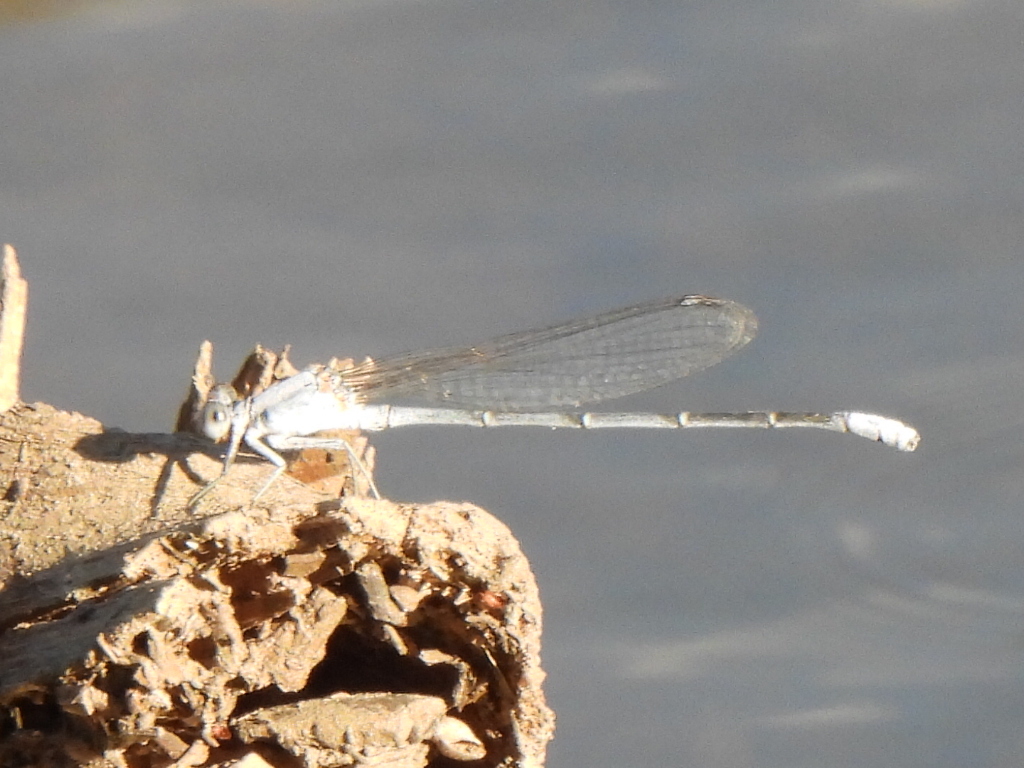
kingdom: Animalia
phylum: Arthropoda
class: Insecta
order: Odonata
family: Coenagrionidae
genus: Argia
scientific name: Argia moesta
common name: Powdered dancer
